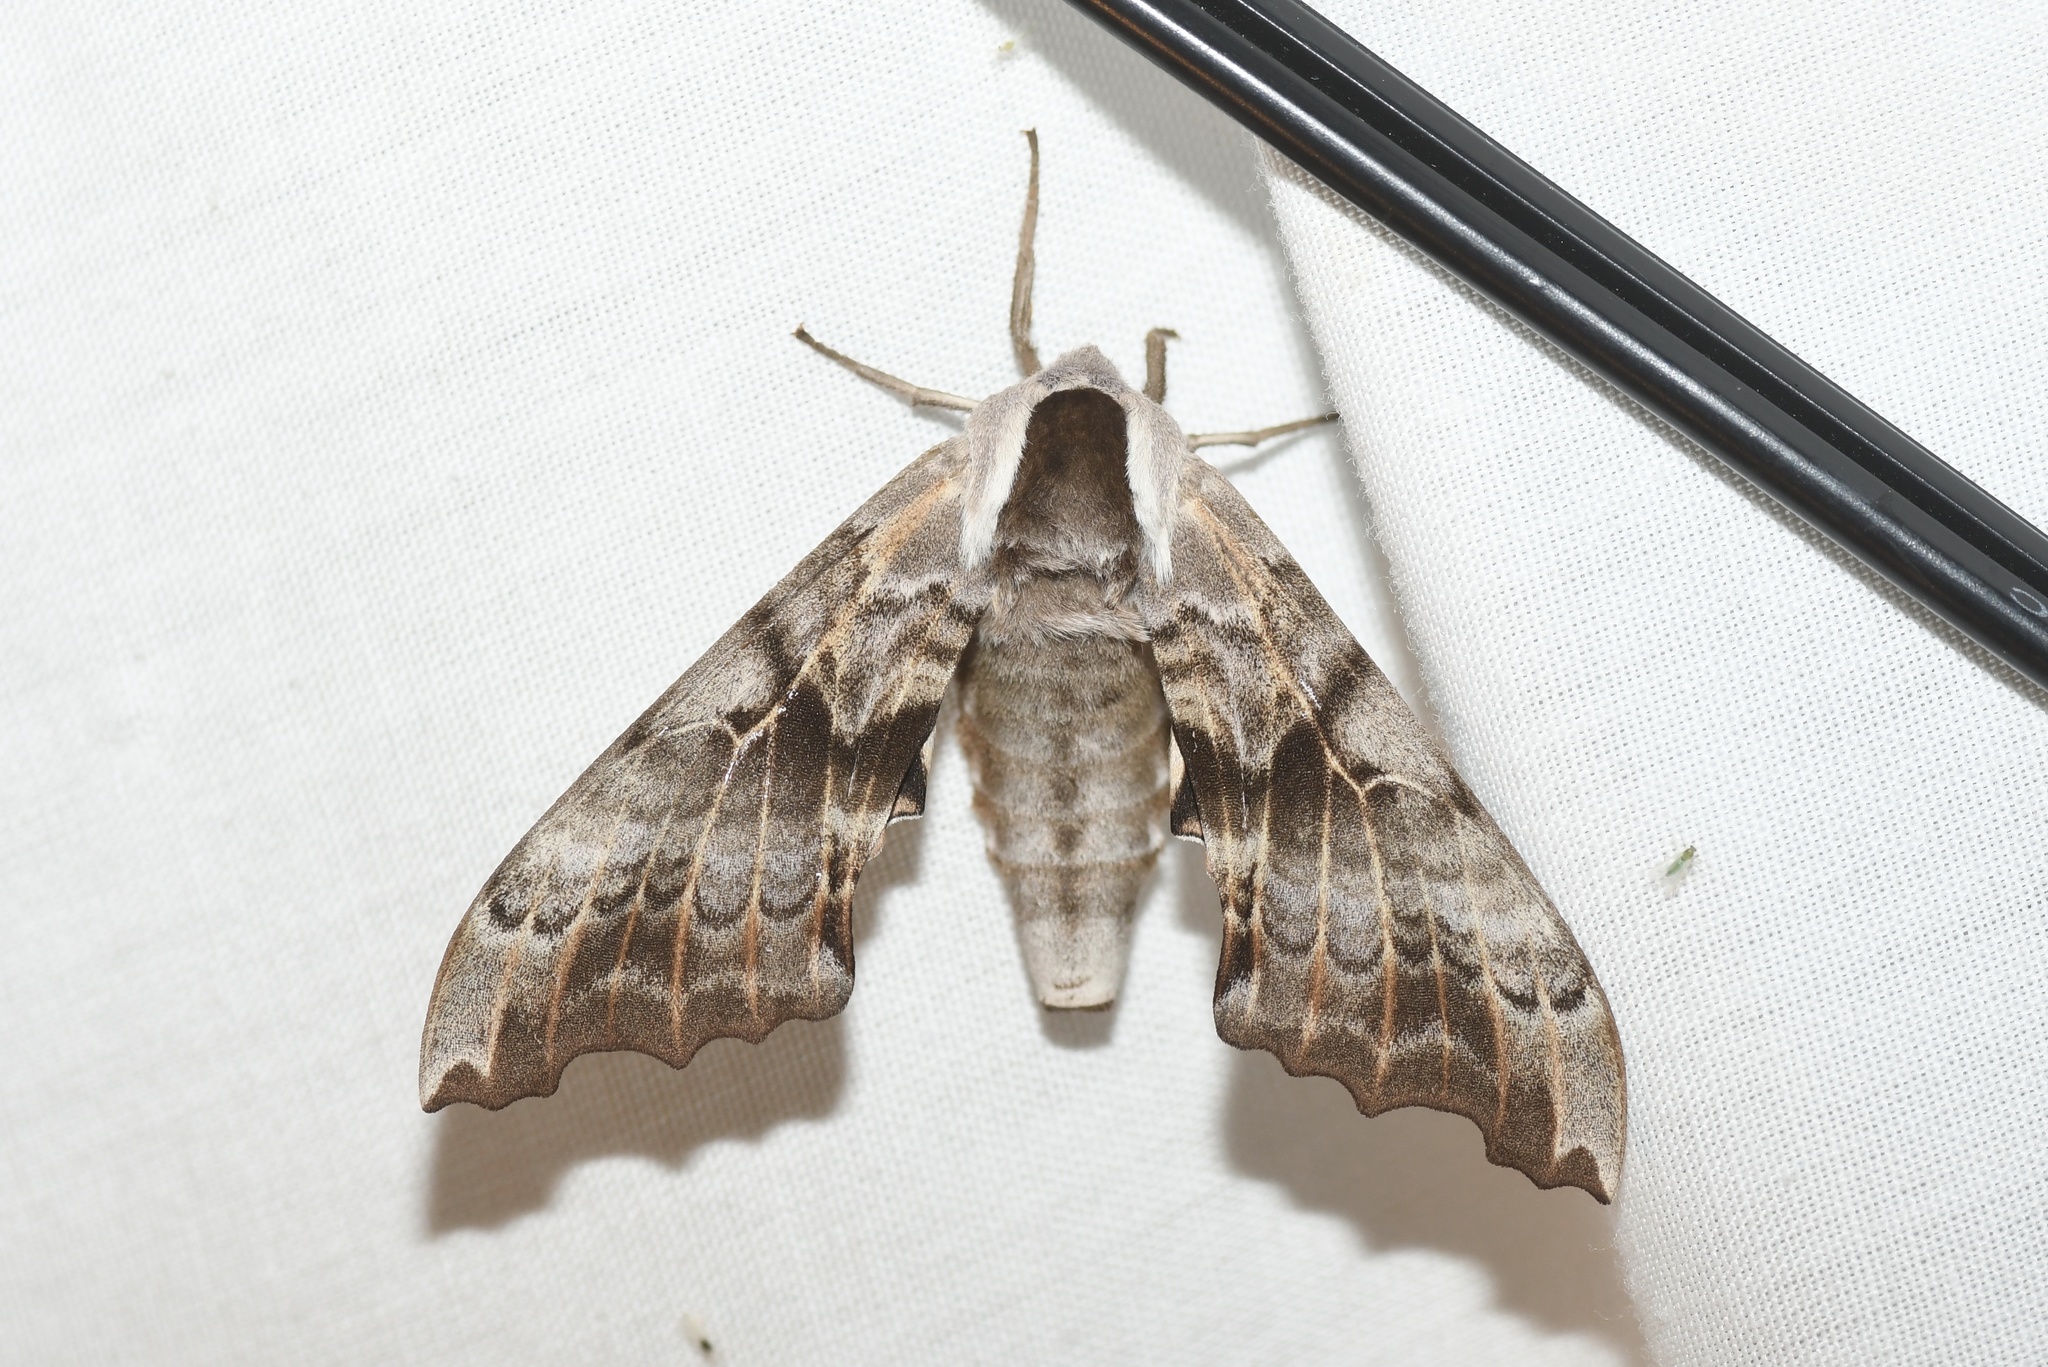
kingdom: Animalia
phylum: Arthropoda
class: Insecta
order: Lepidoptera
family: Sphingidae
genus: Smerinthus
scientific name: Smerinthus cerisyi
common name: Cerisy's sphinx moth
